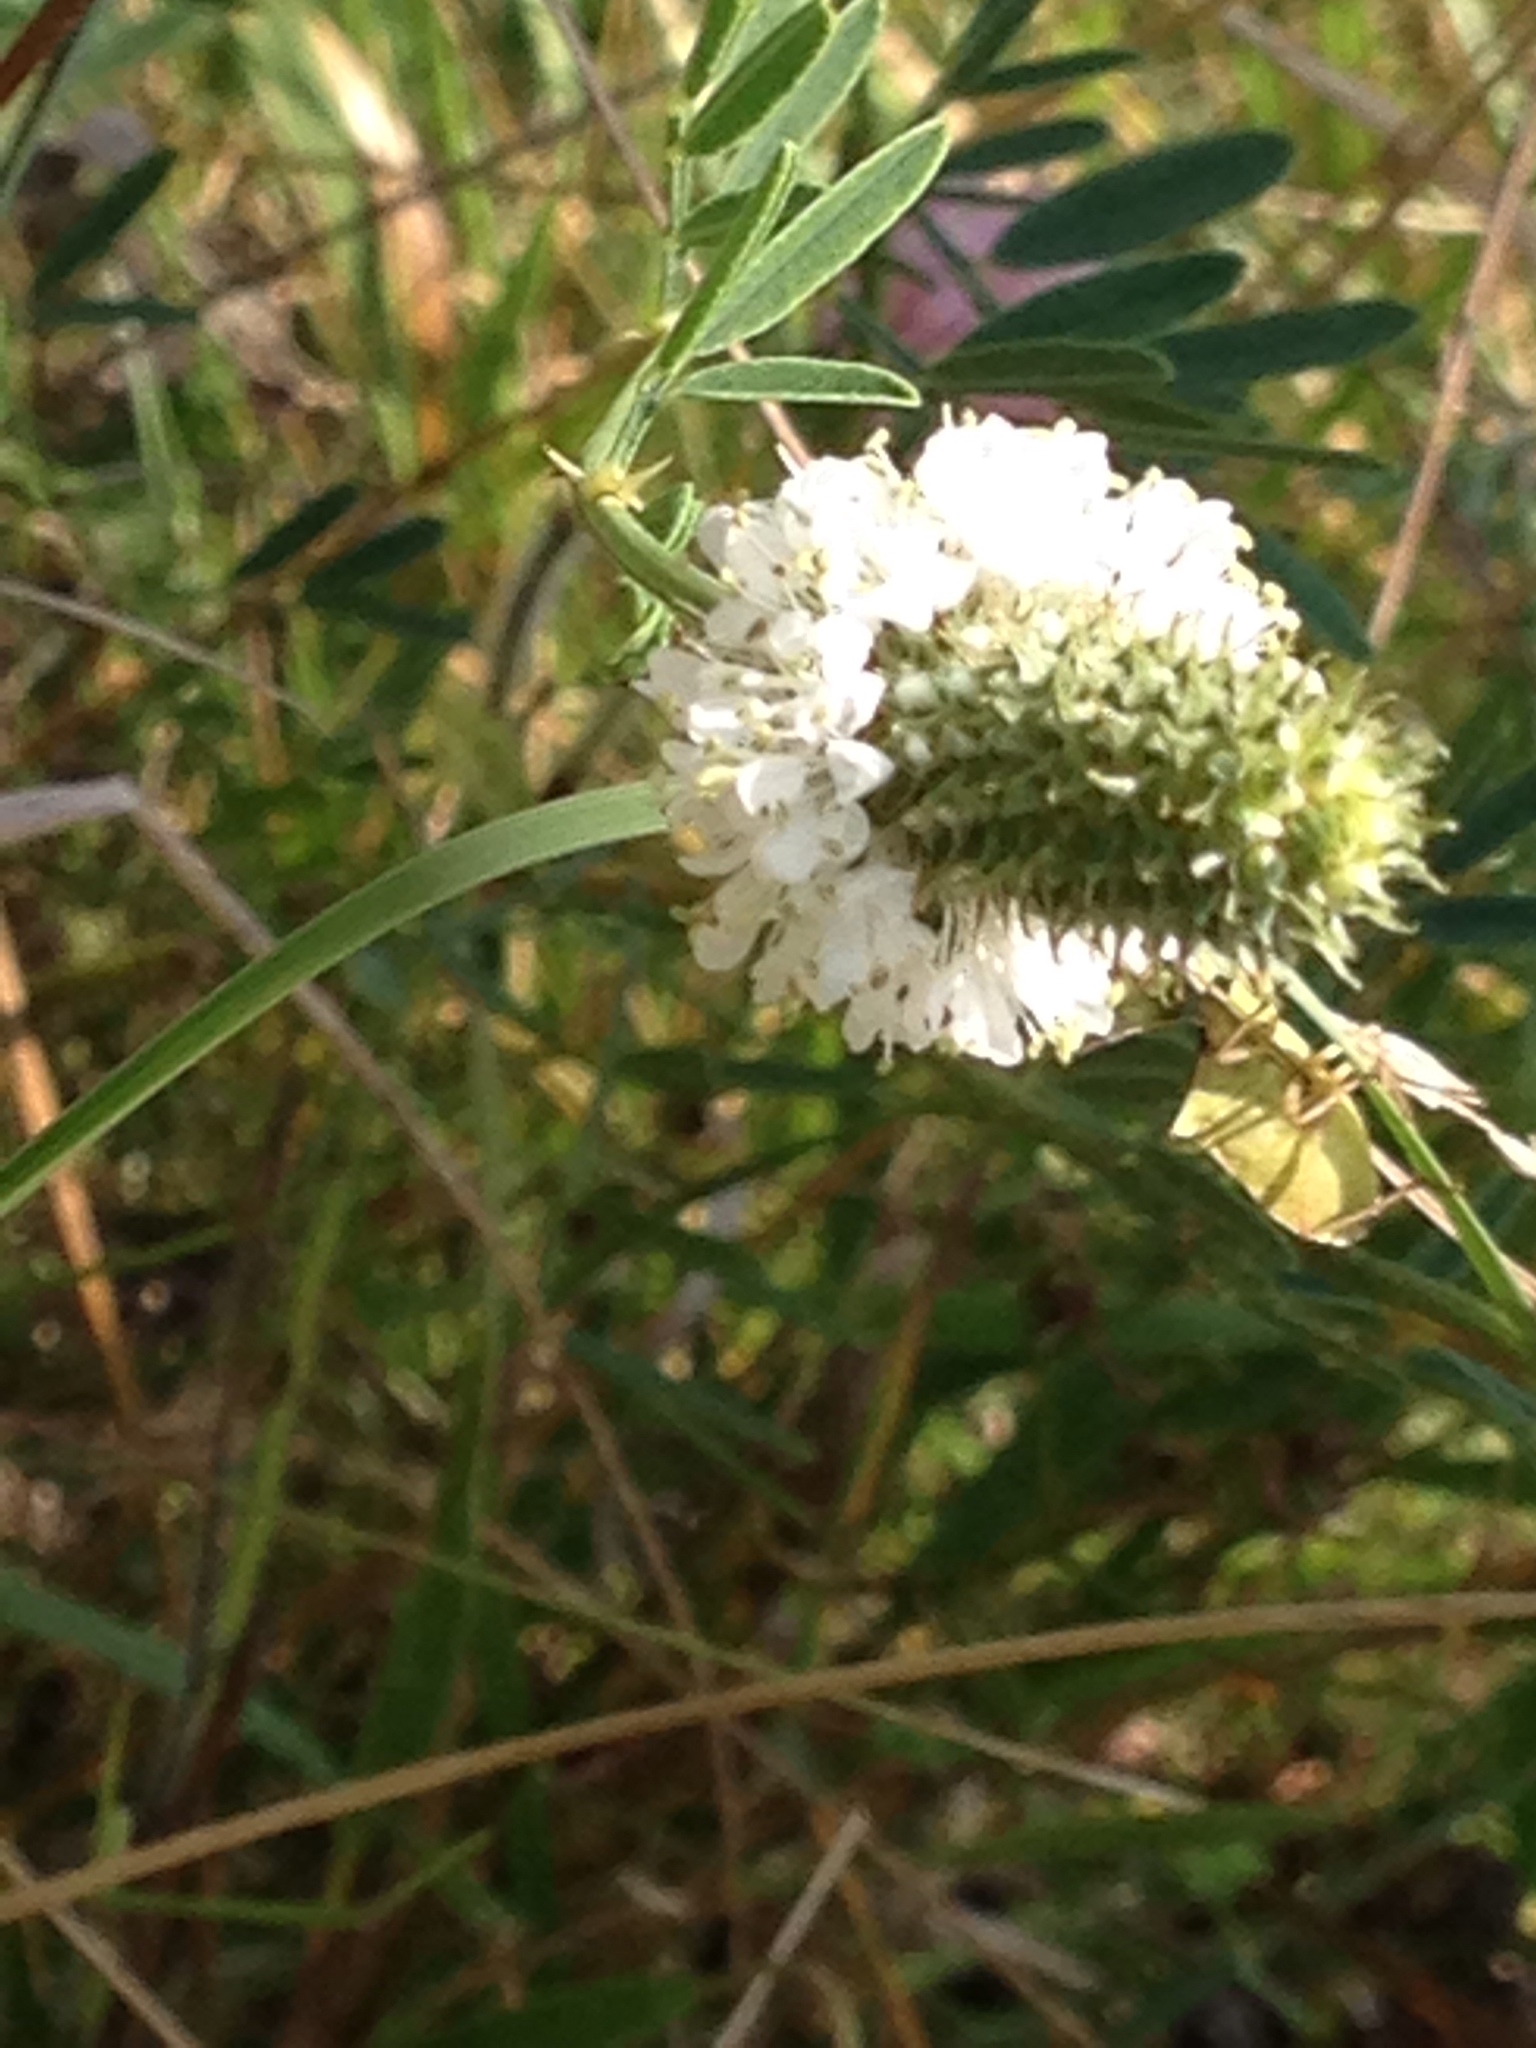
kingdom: Plantae
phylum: Tracheophyta
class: Magnoliopsida
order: Fabales
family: Fabaceae
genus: Dalea
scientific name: Dalea candida
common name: White prairie-clover
